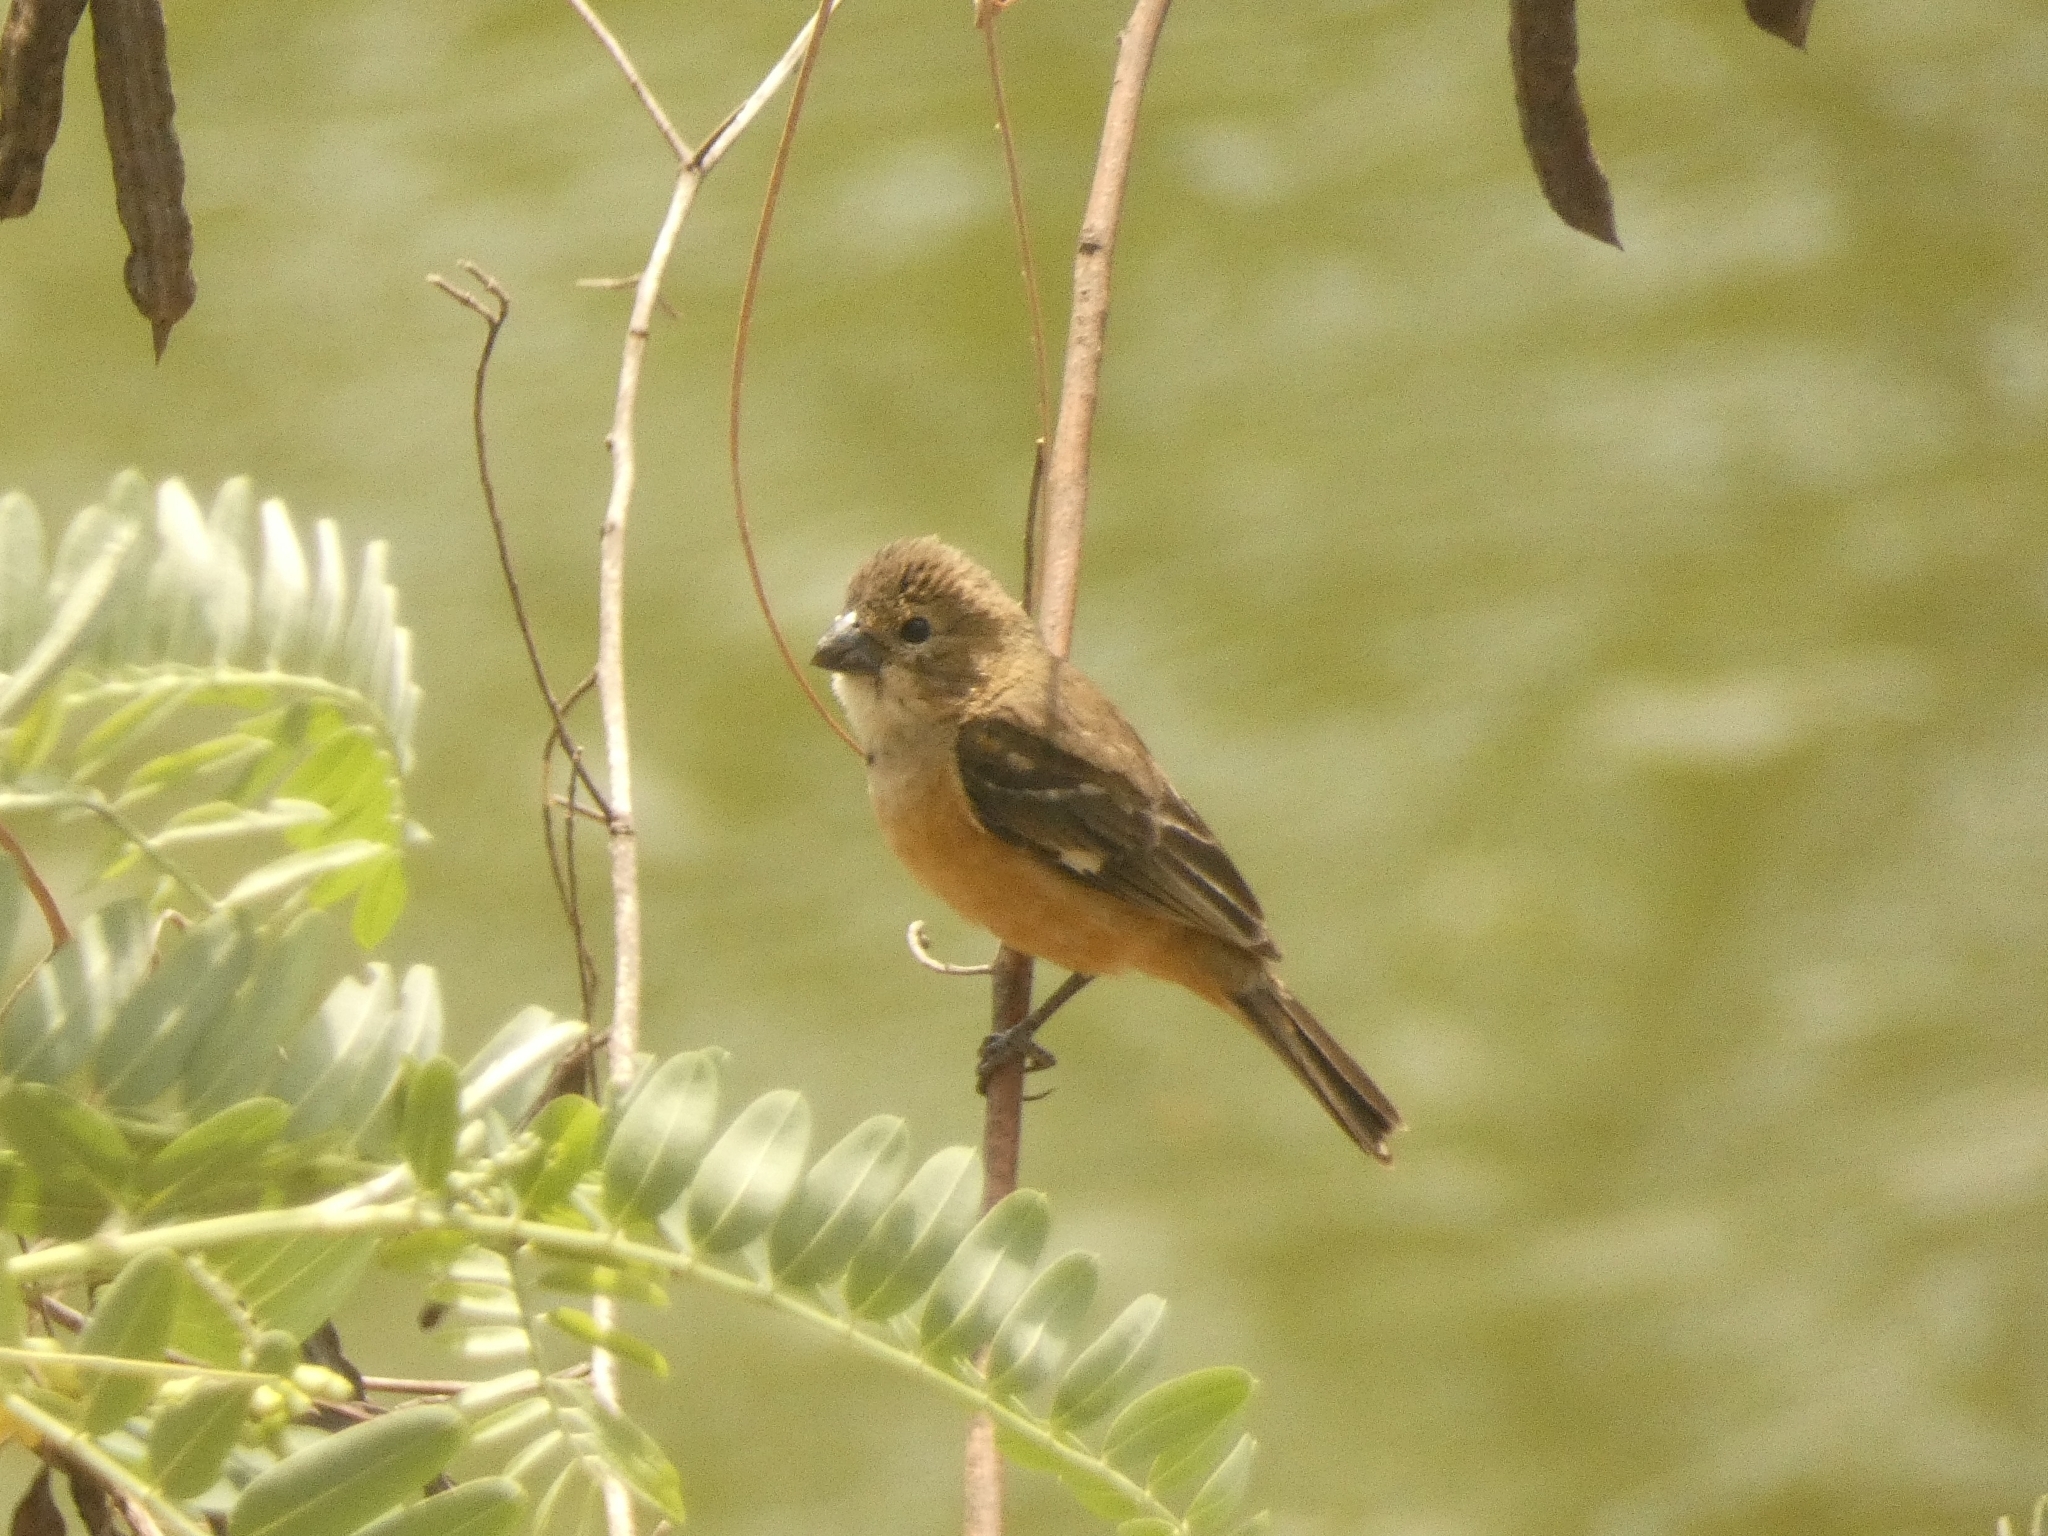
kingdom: Animalia
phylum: Chordata
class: Aves
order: Passeriformes
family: Thraupidae
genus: Sporophila
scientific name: Sporophila collaris
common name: Rusty-collared seedeater
